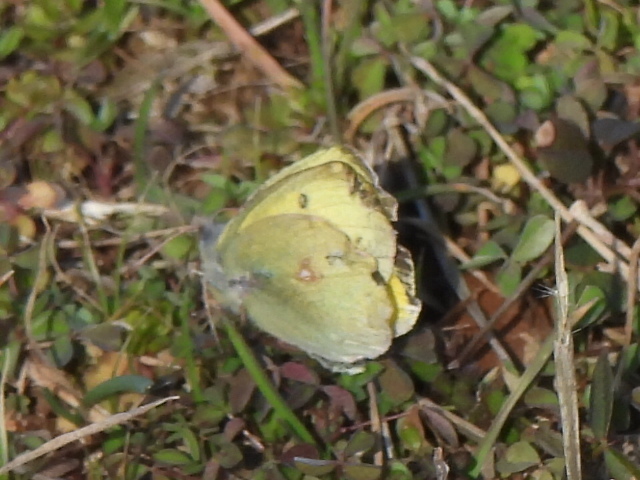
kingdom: Animalia
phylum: Arthropoda
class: Insecta
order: Lepidoptera
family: Pieridae
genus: Colias
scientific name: Colias eurytheme
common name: Alfalfa butterfly
